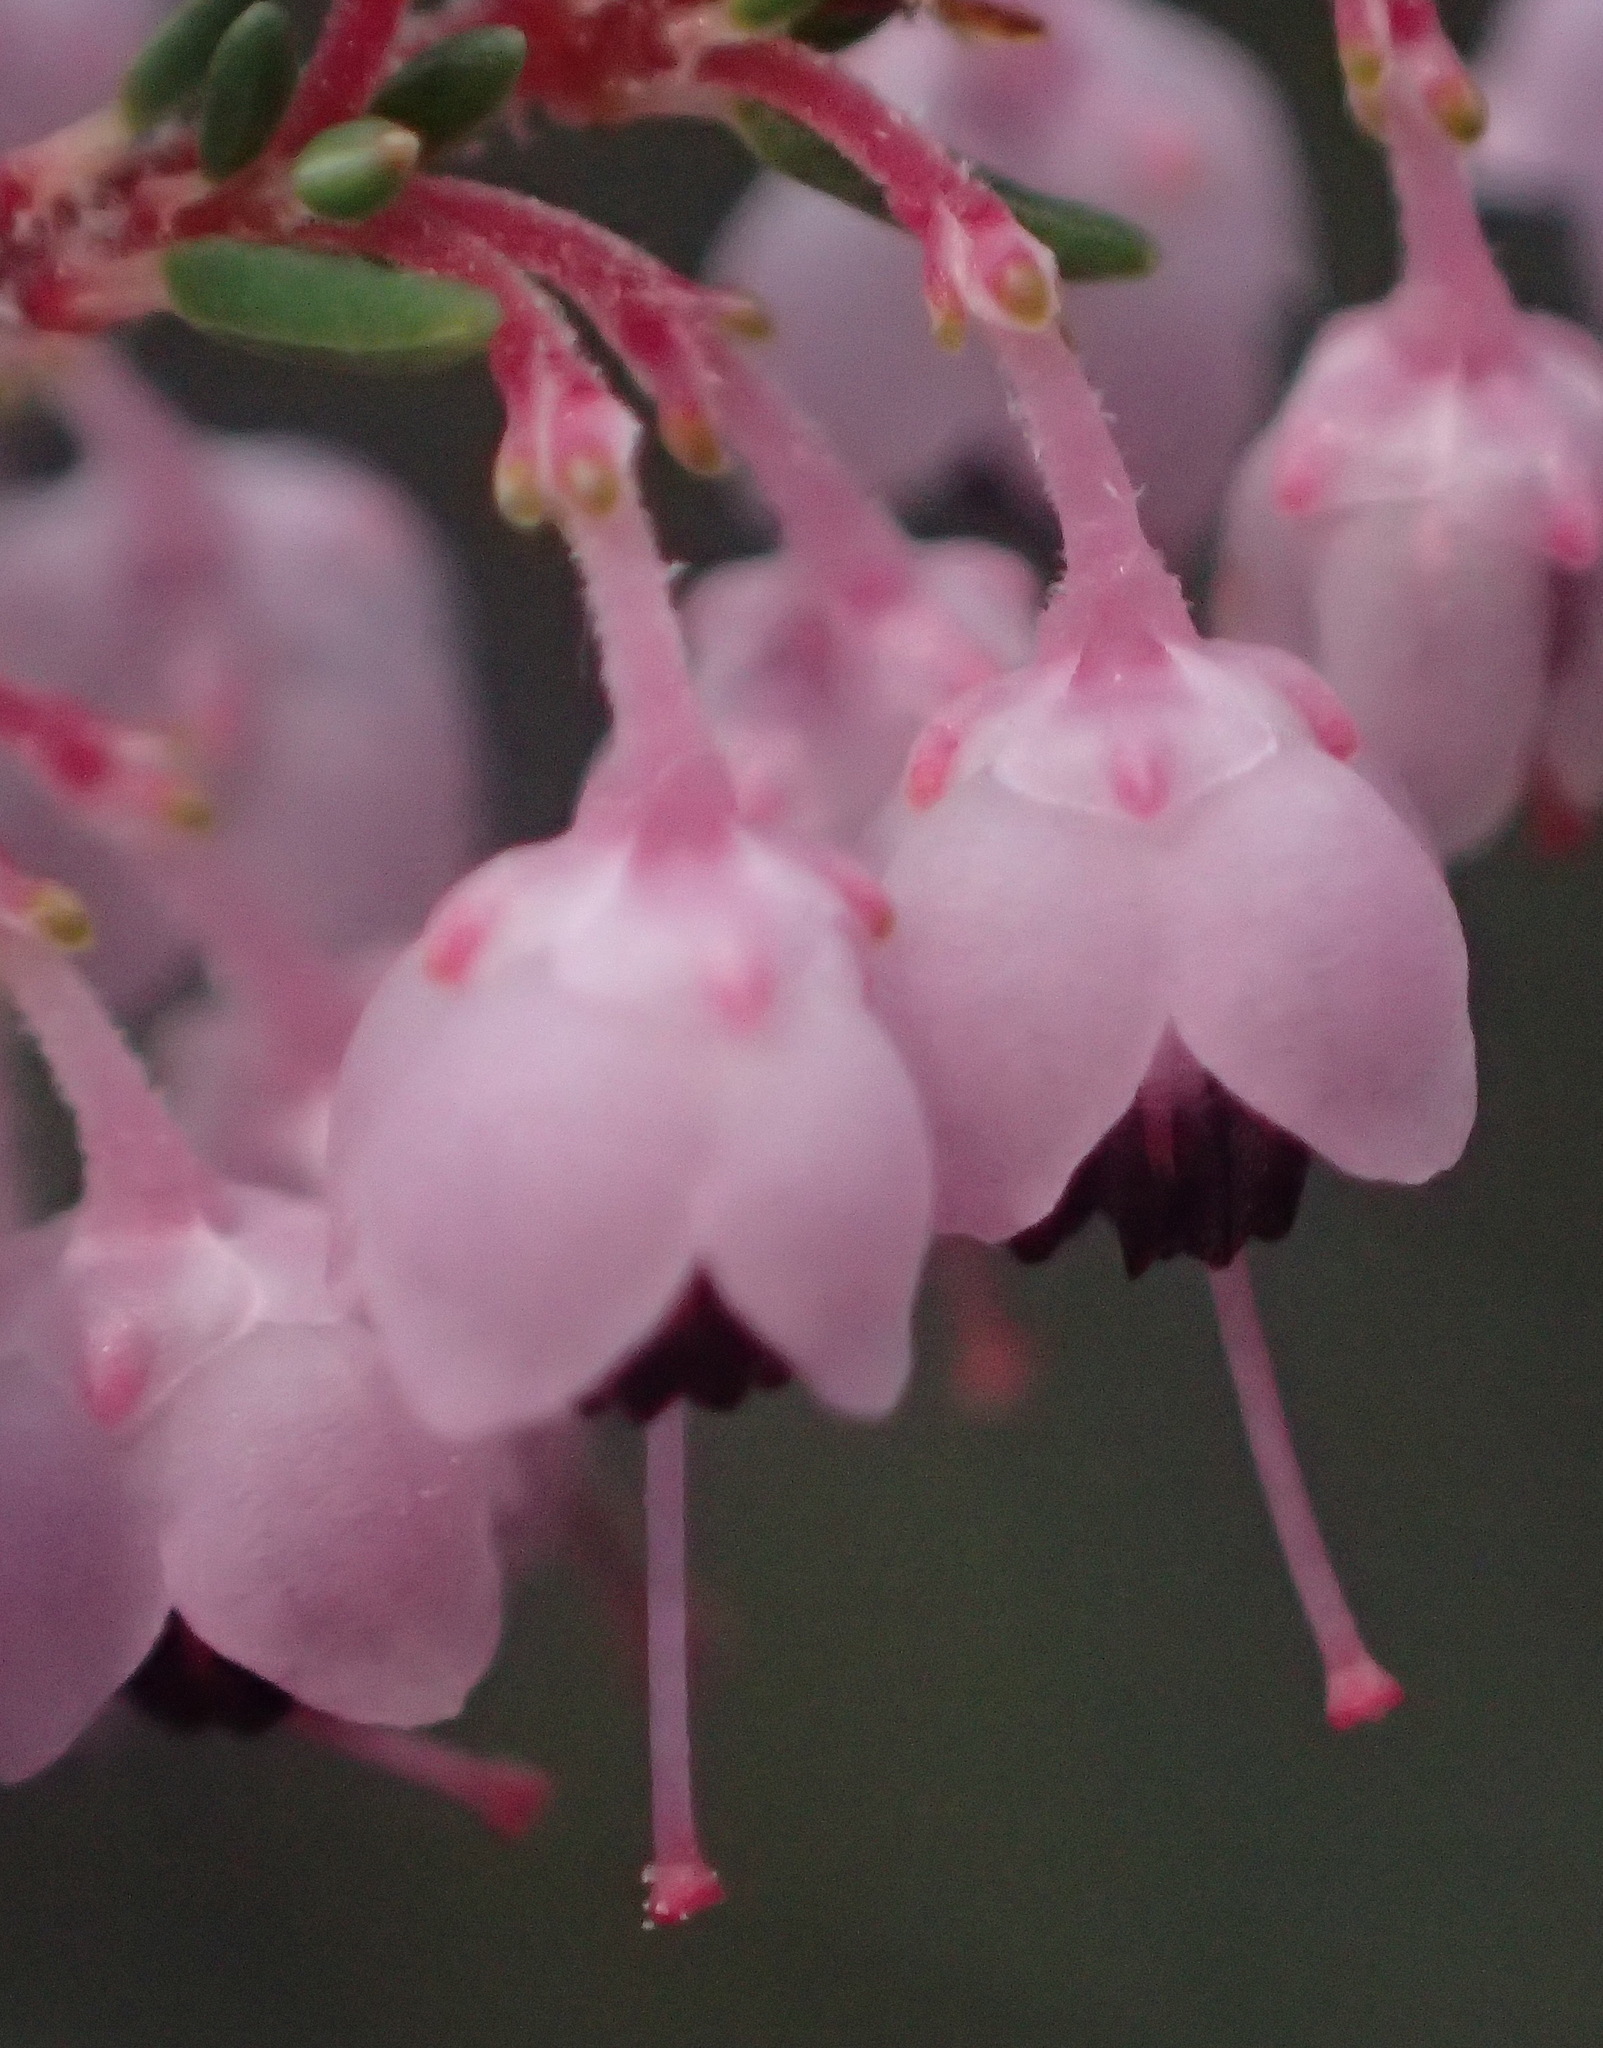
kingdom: Plantae
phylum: Tracheophyta
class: Magnoliopsida
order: Ericales
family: Ericaceae
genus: Erica
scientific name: Erica sparsa
